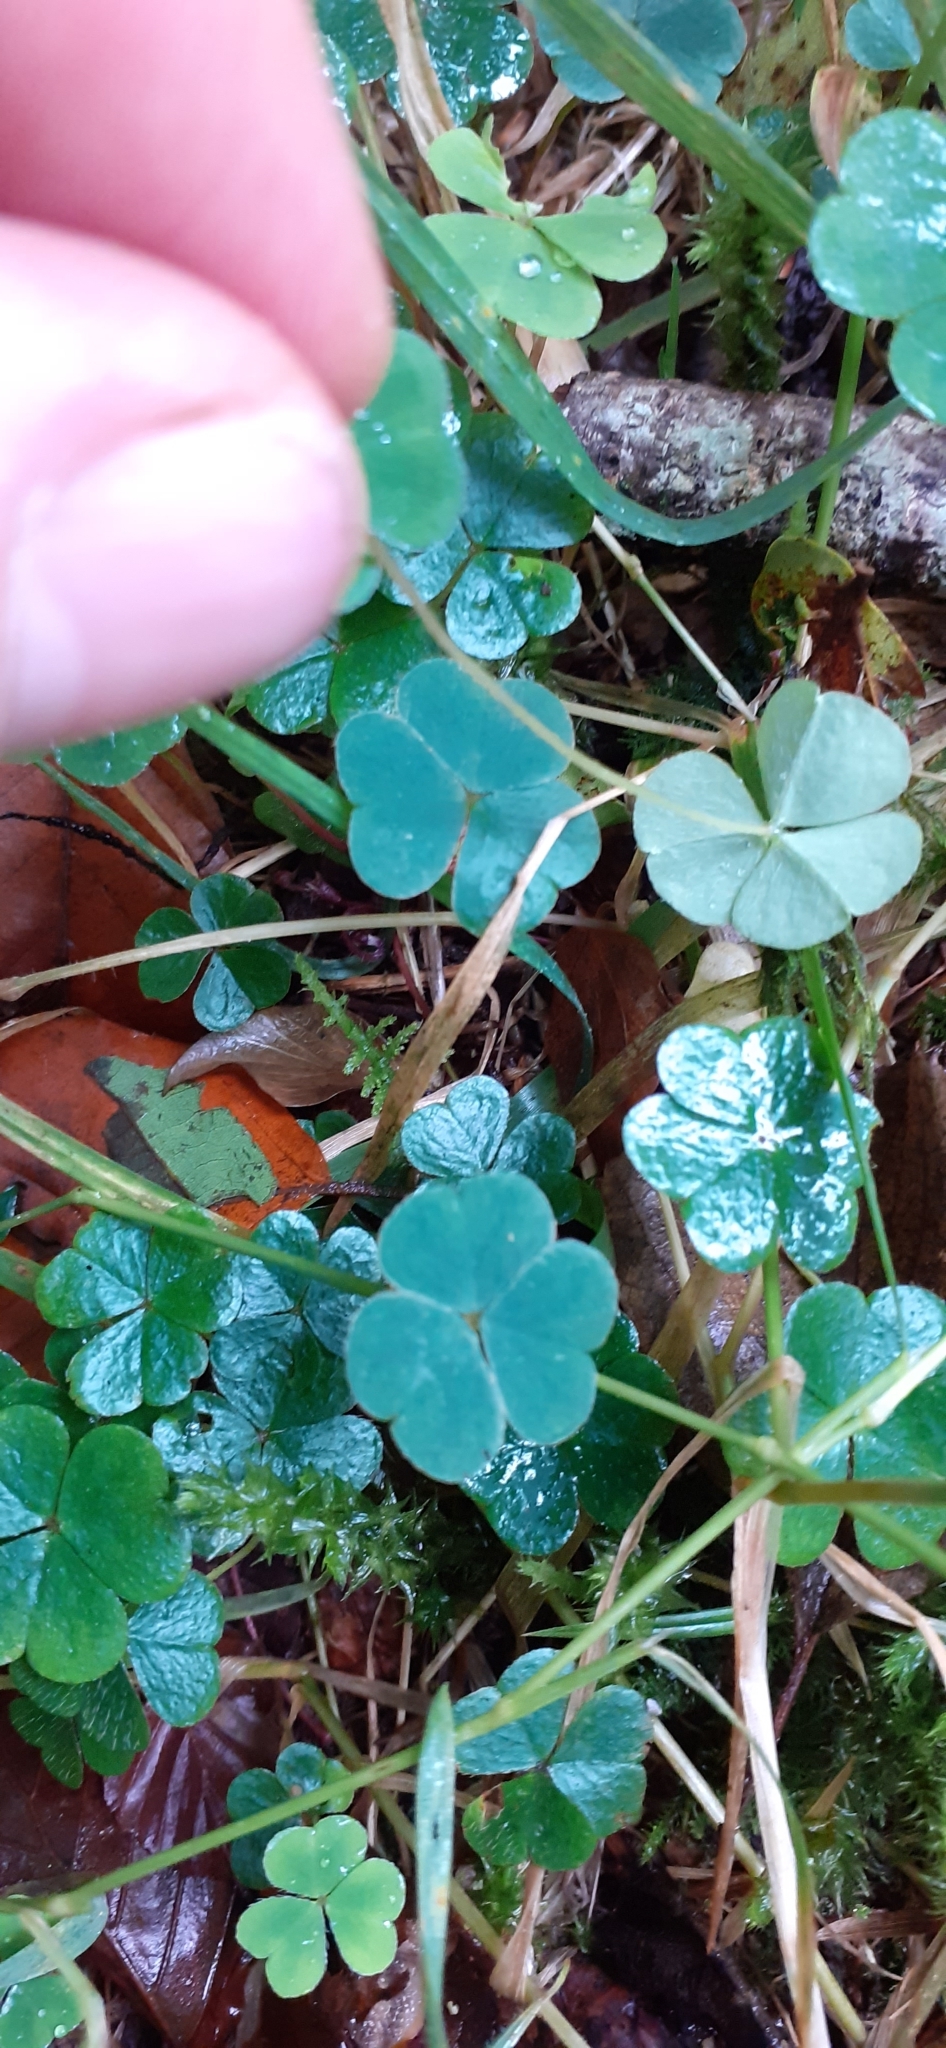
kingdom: Plantae
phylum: Tracheophyta
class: Magnoliopsida
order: Oxalidales
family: Oxalidaceae
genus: Oxalis
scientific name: Oxalis acetosella
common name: Wood-sorrel
